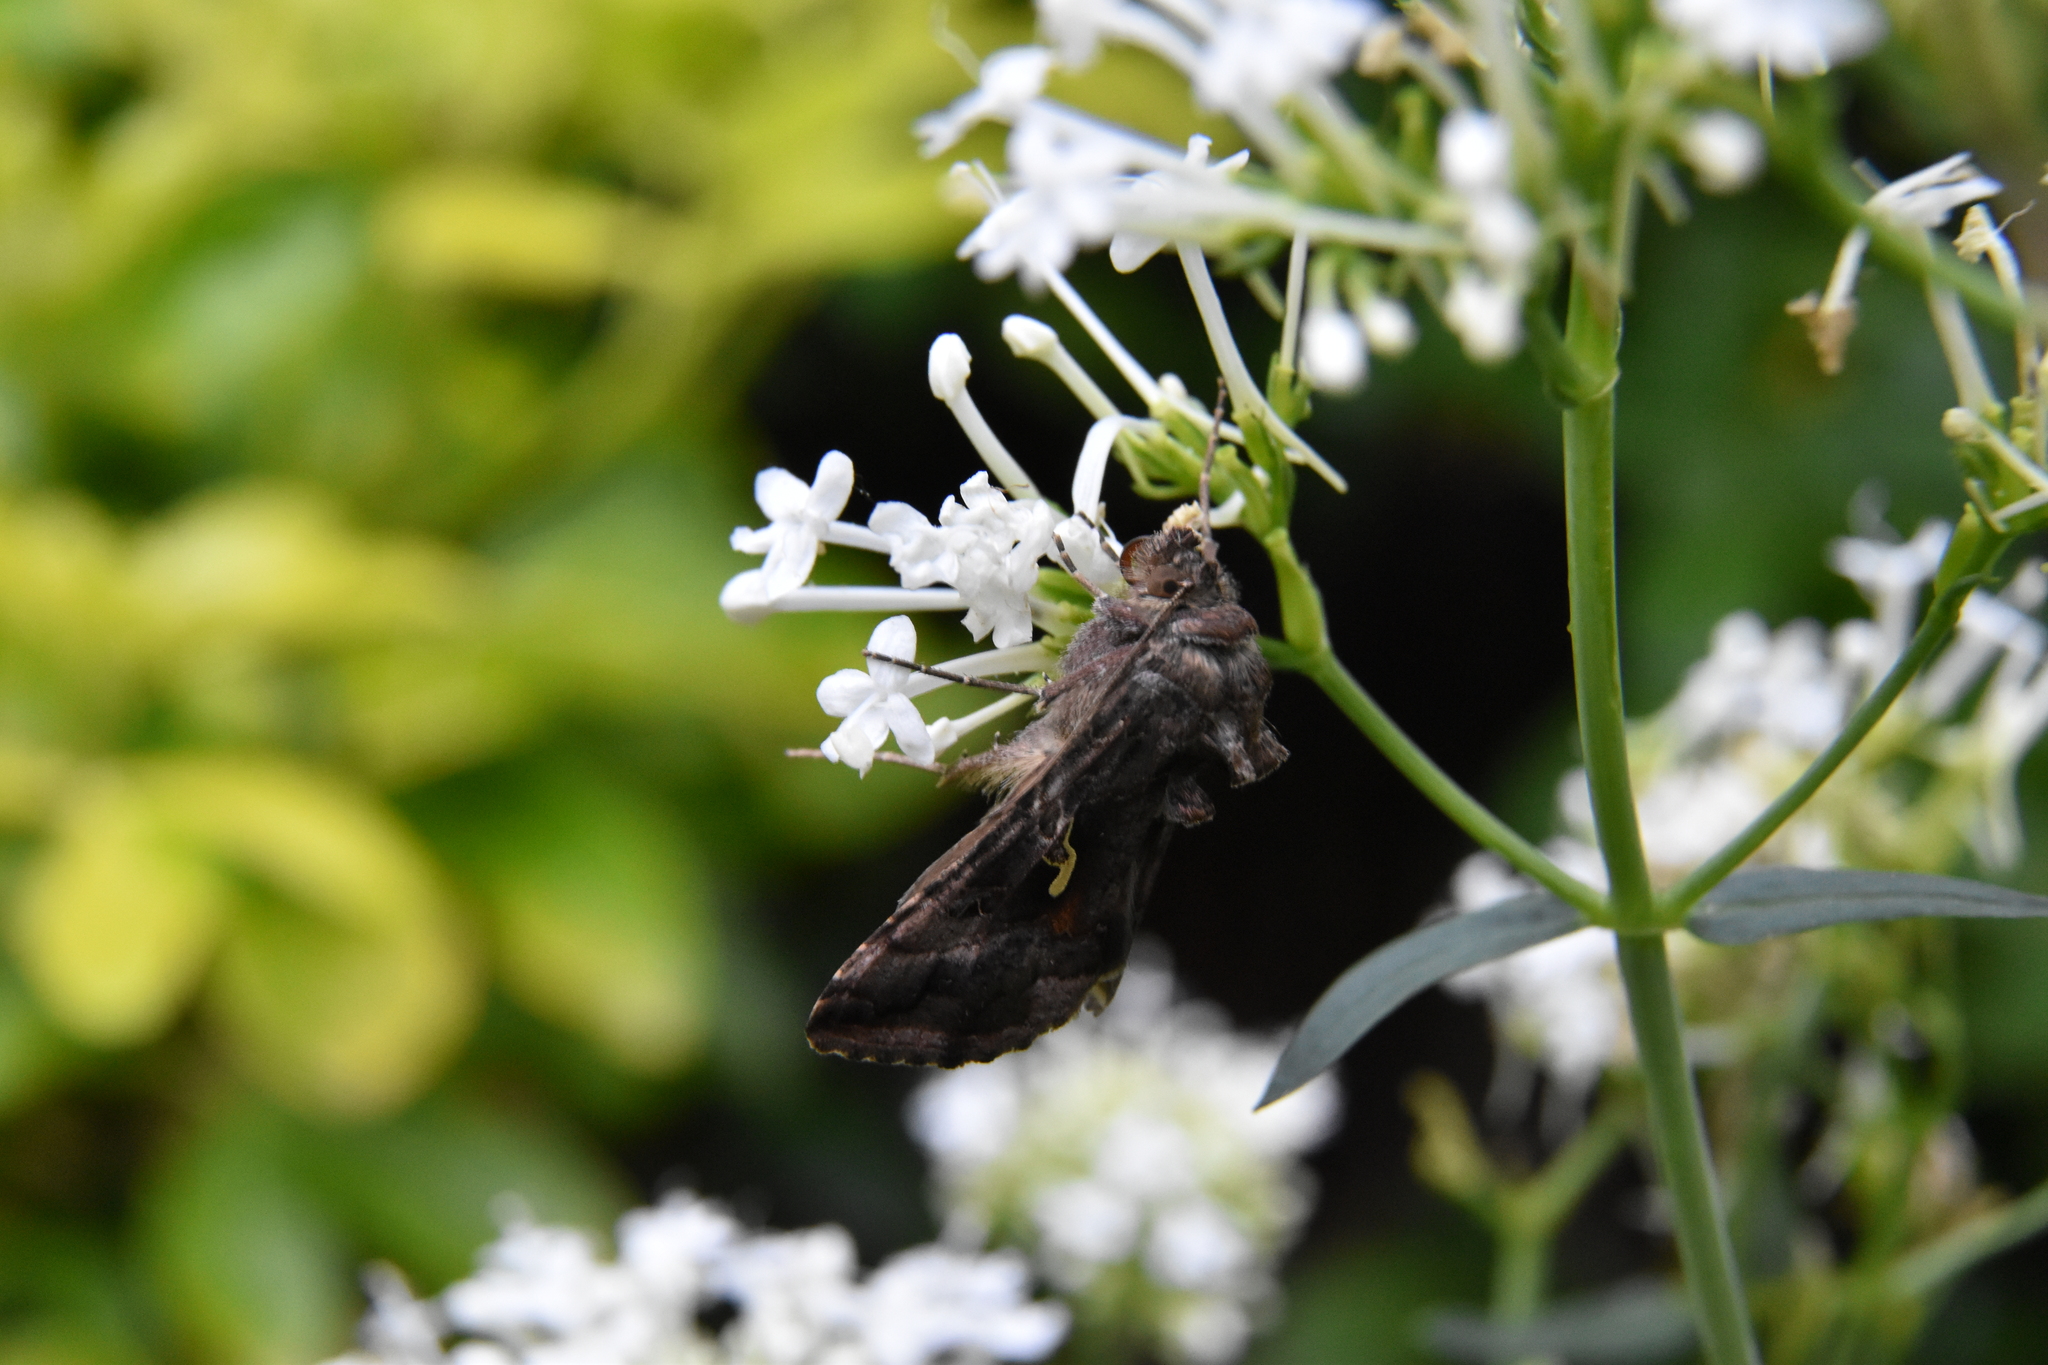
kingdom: Animalia
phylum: Arthropoda
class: Insecta
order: Lepidoptera
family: Noctuidae
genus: Autographa
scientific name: Autographa gamma
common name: Silver y
